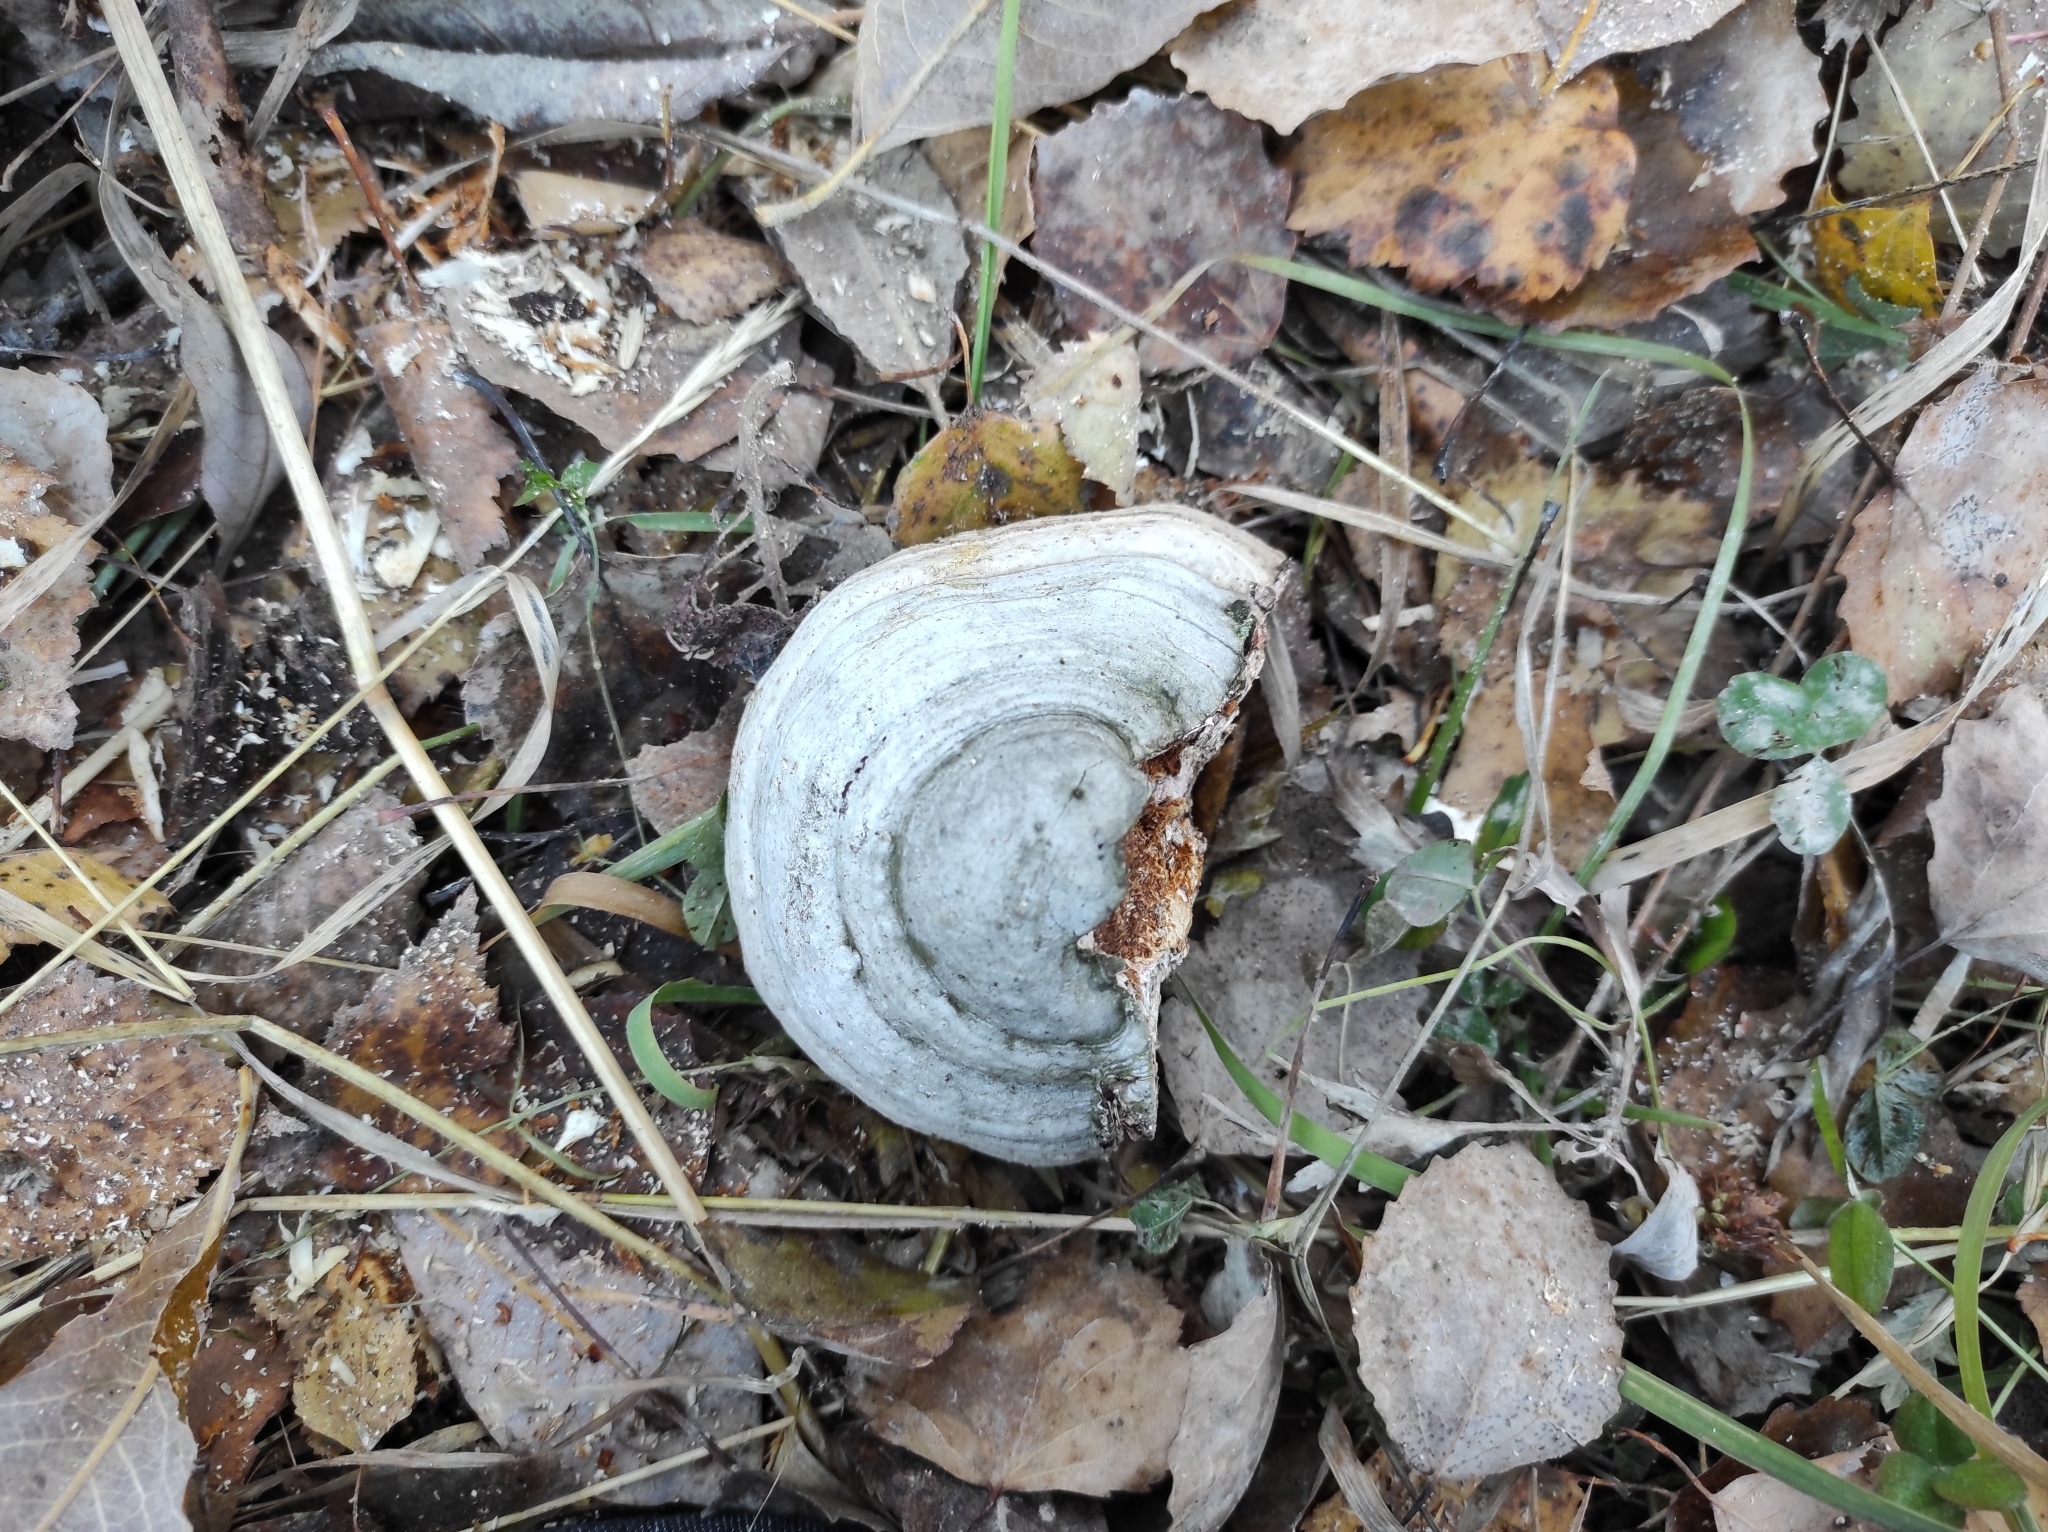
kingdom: Fungi
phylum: Basidiomycota
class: Agaricomycetes
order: Polyporales
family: Polyporaceae
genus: Fomes
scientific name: Fomes fomentarius
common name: Hoof fungus
